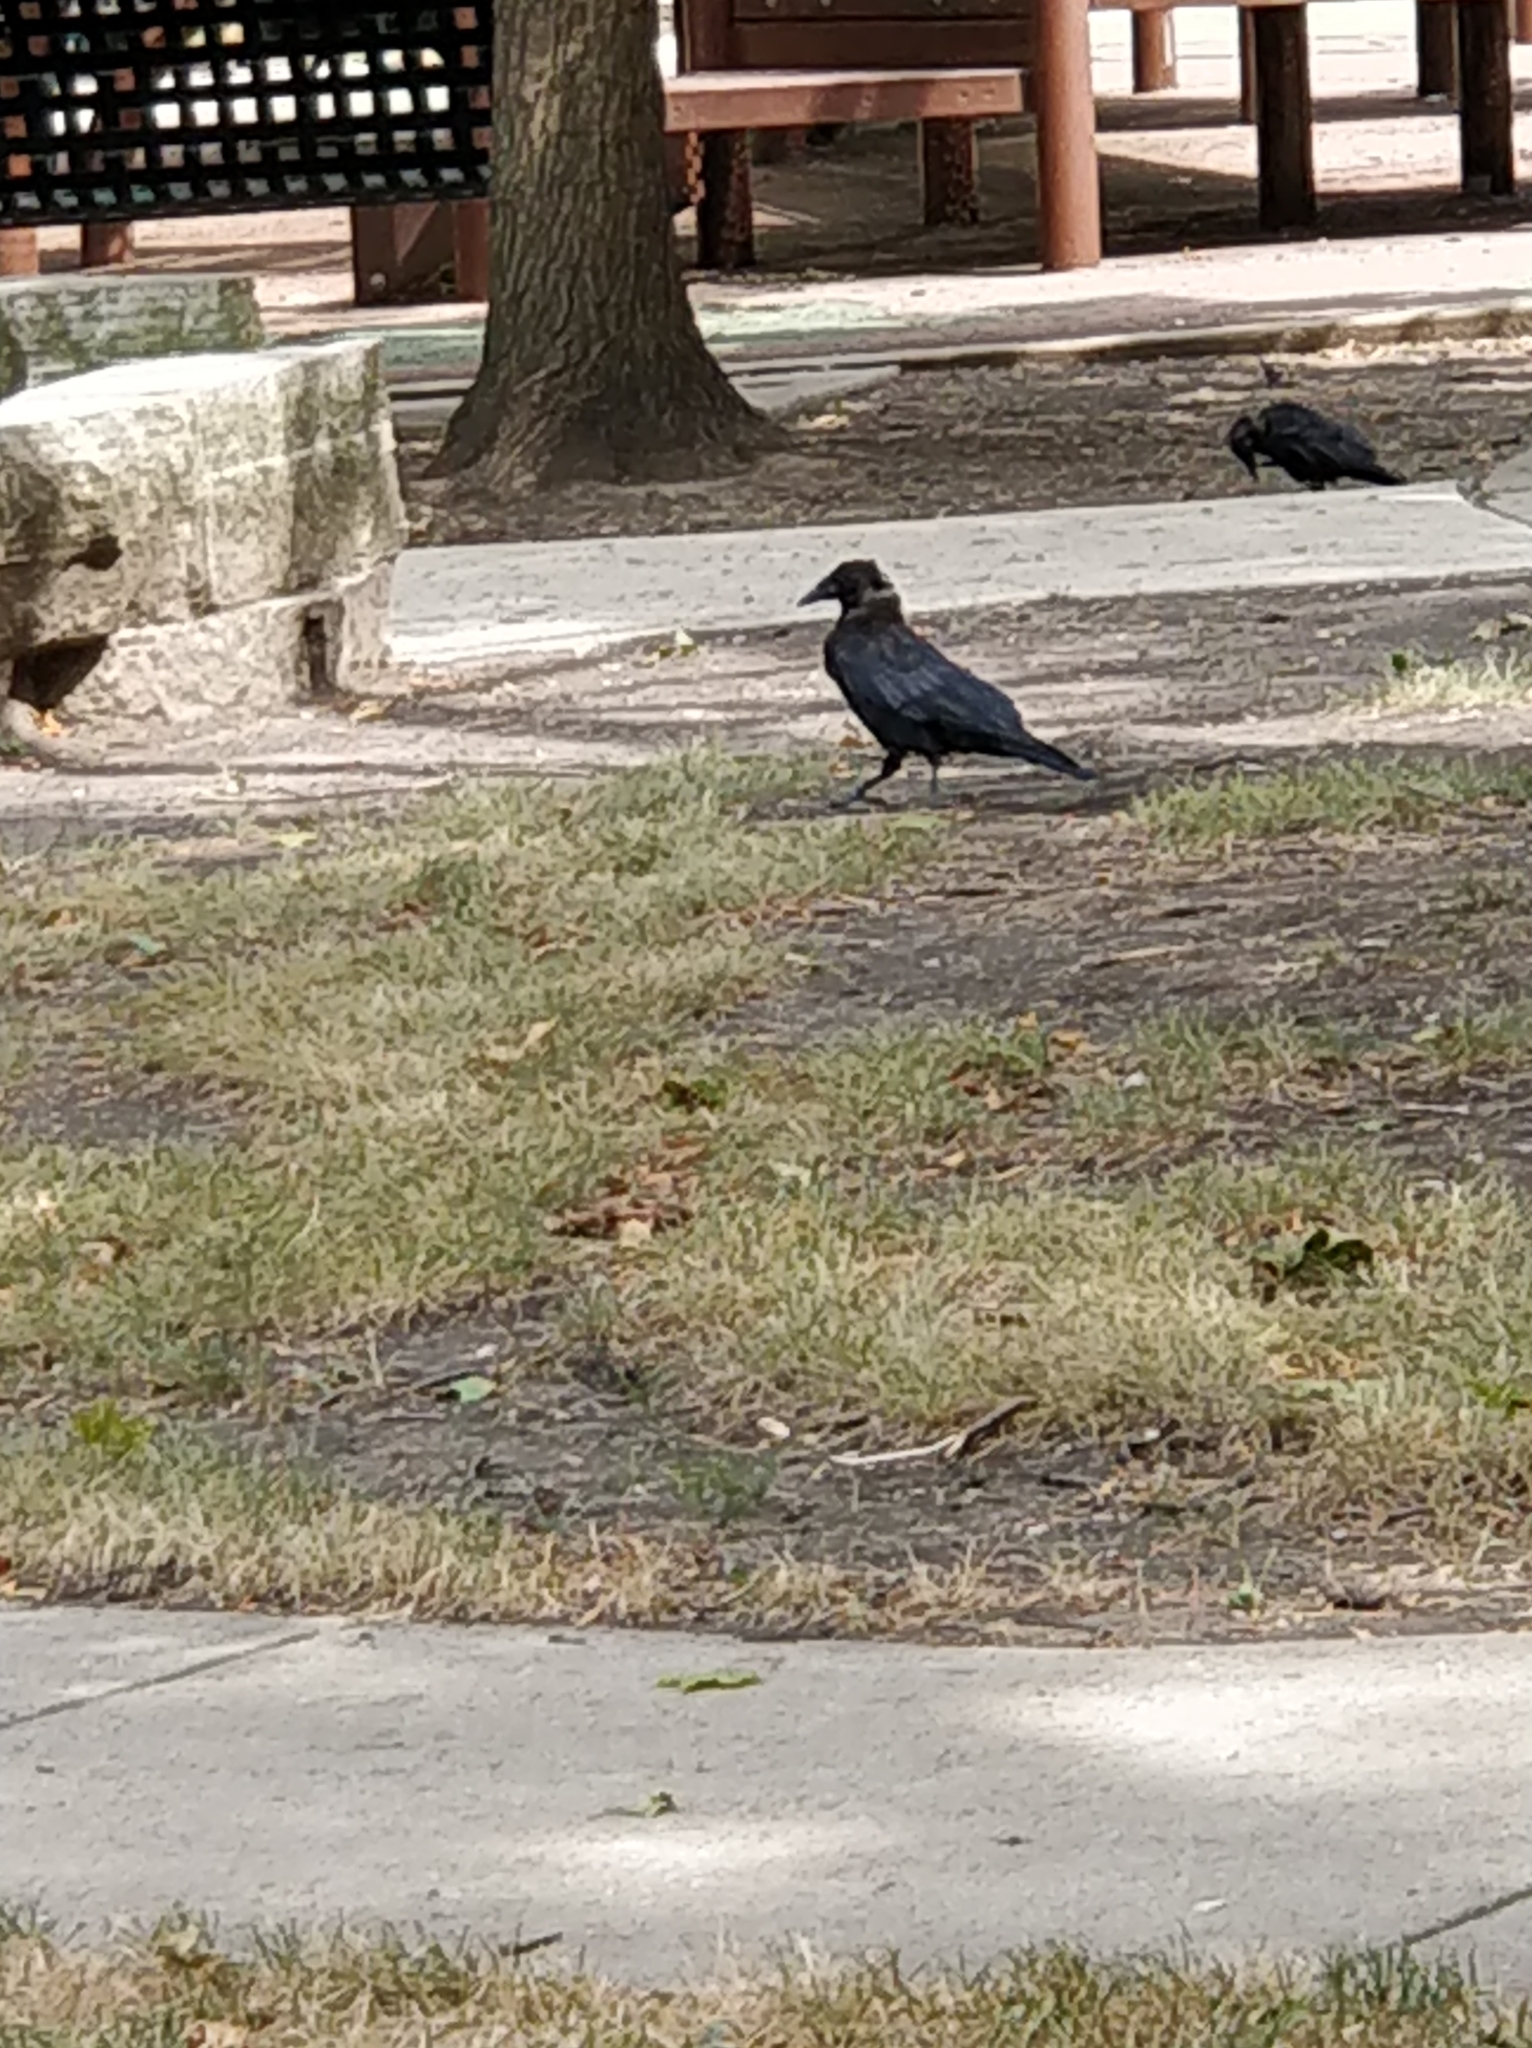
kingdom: Animalia
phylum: Chordata
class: Aves
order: Passeriformes
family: Corvidae
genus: Corvus
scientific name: Corvus brachyrhynchos
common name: American crow
